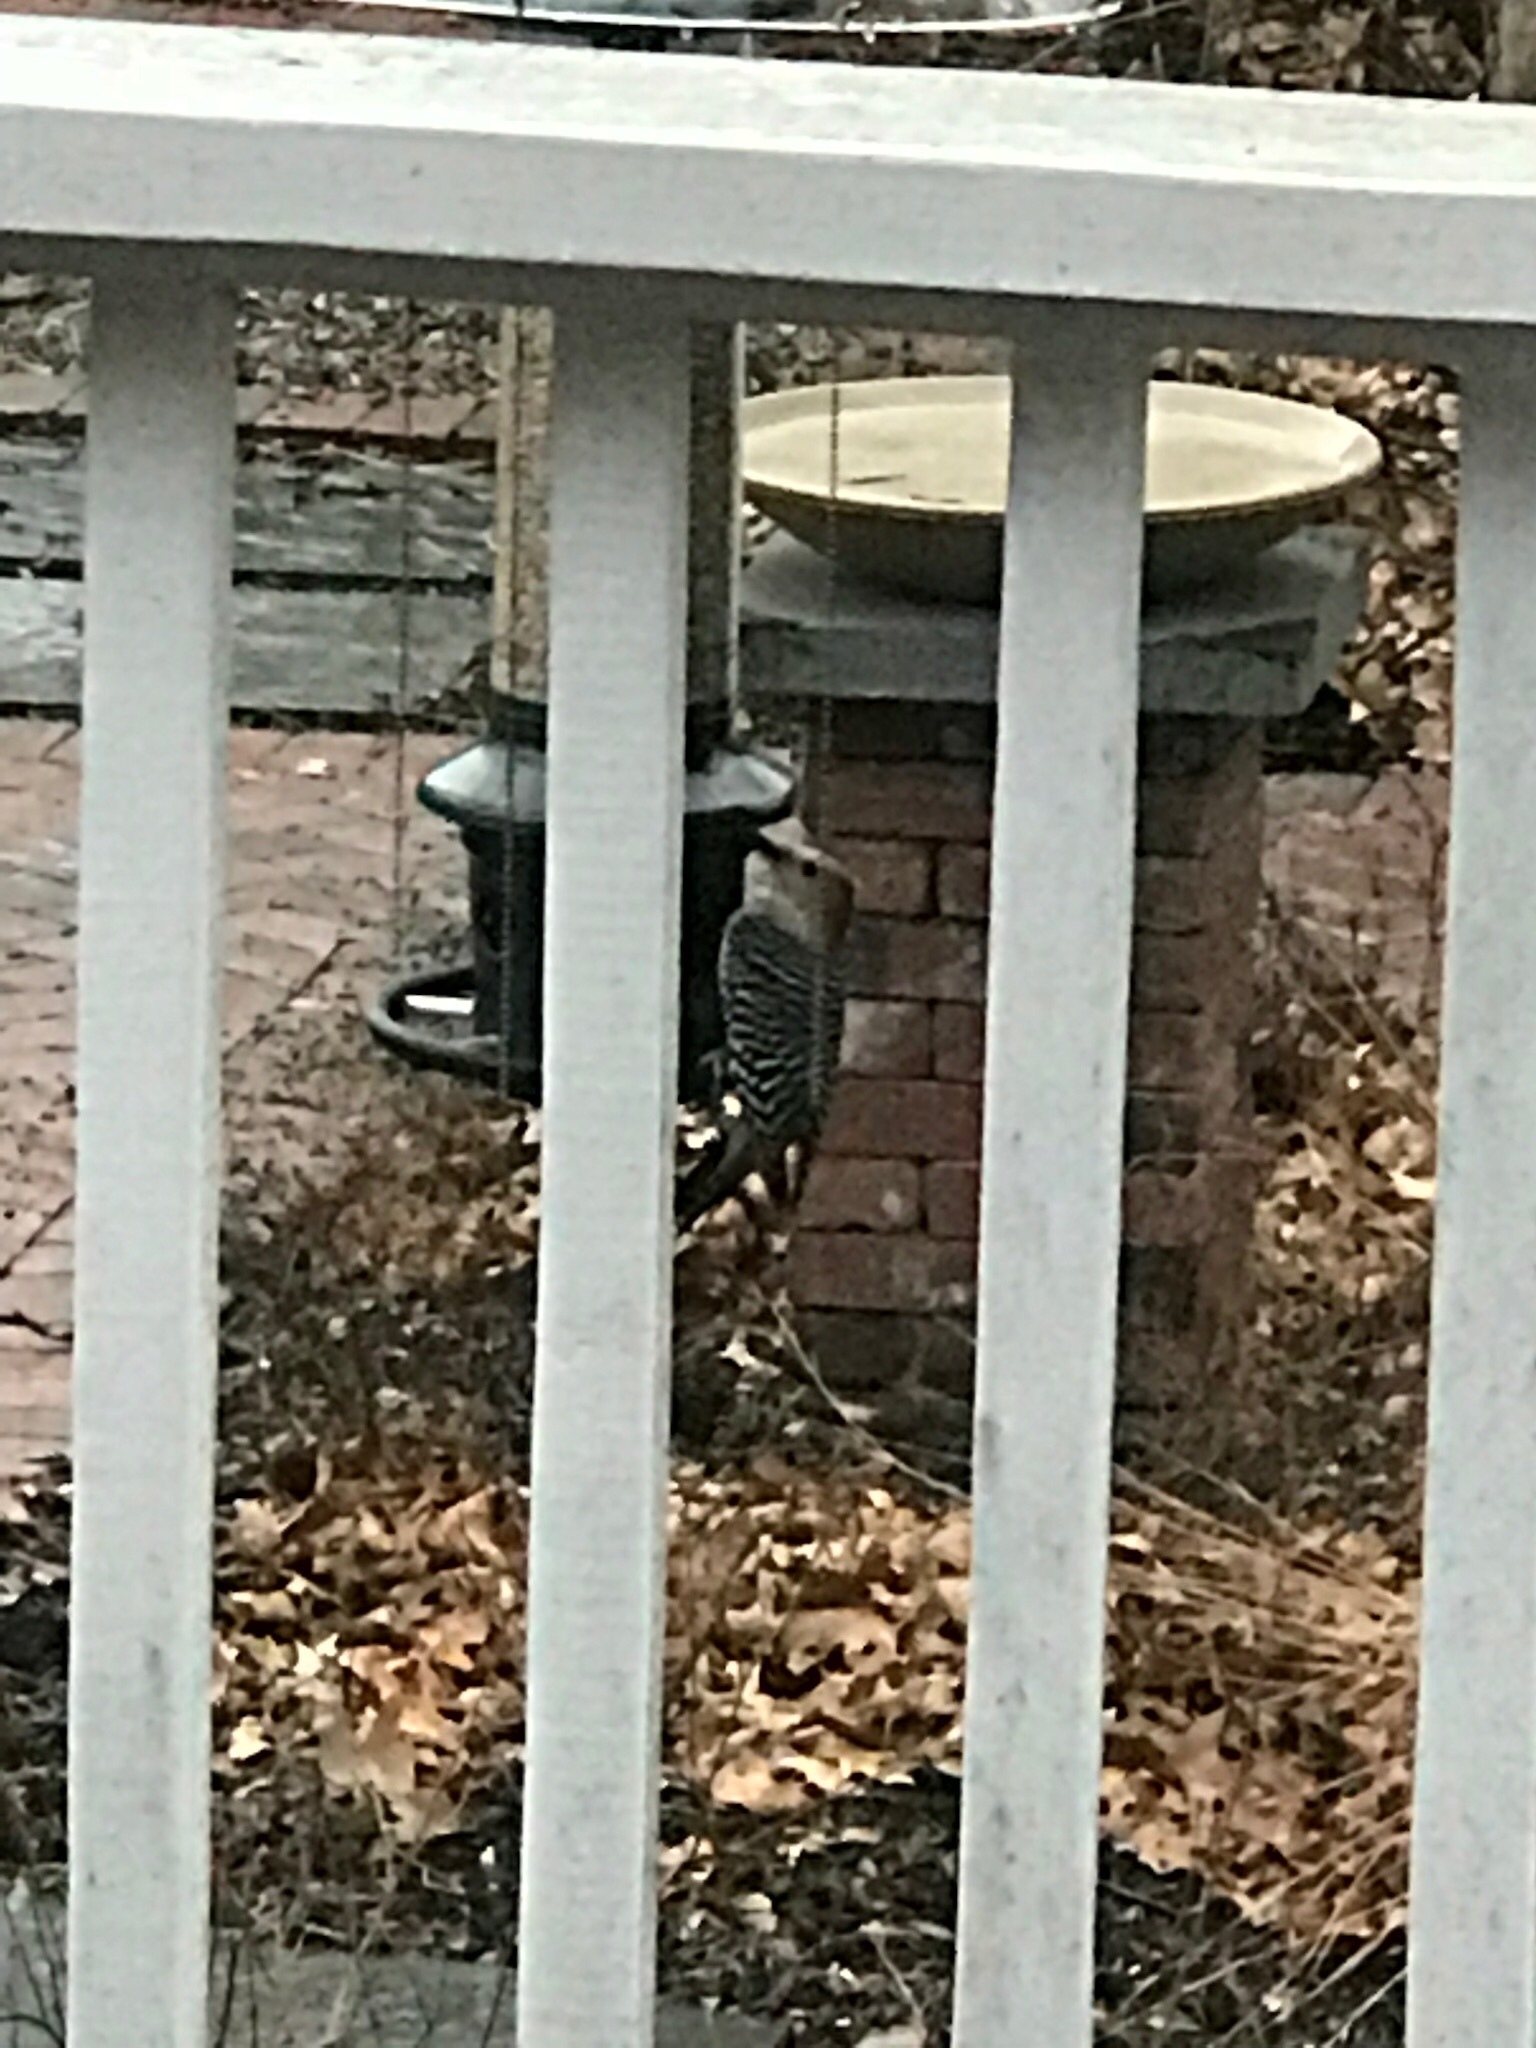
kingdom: Animalia
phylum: Chordata
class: Aves
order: Piciformes
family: Picidae
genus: Melanerpes
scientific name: Melanerpes carolinus
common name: Red-bellied woodpecker
